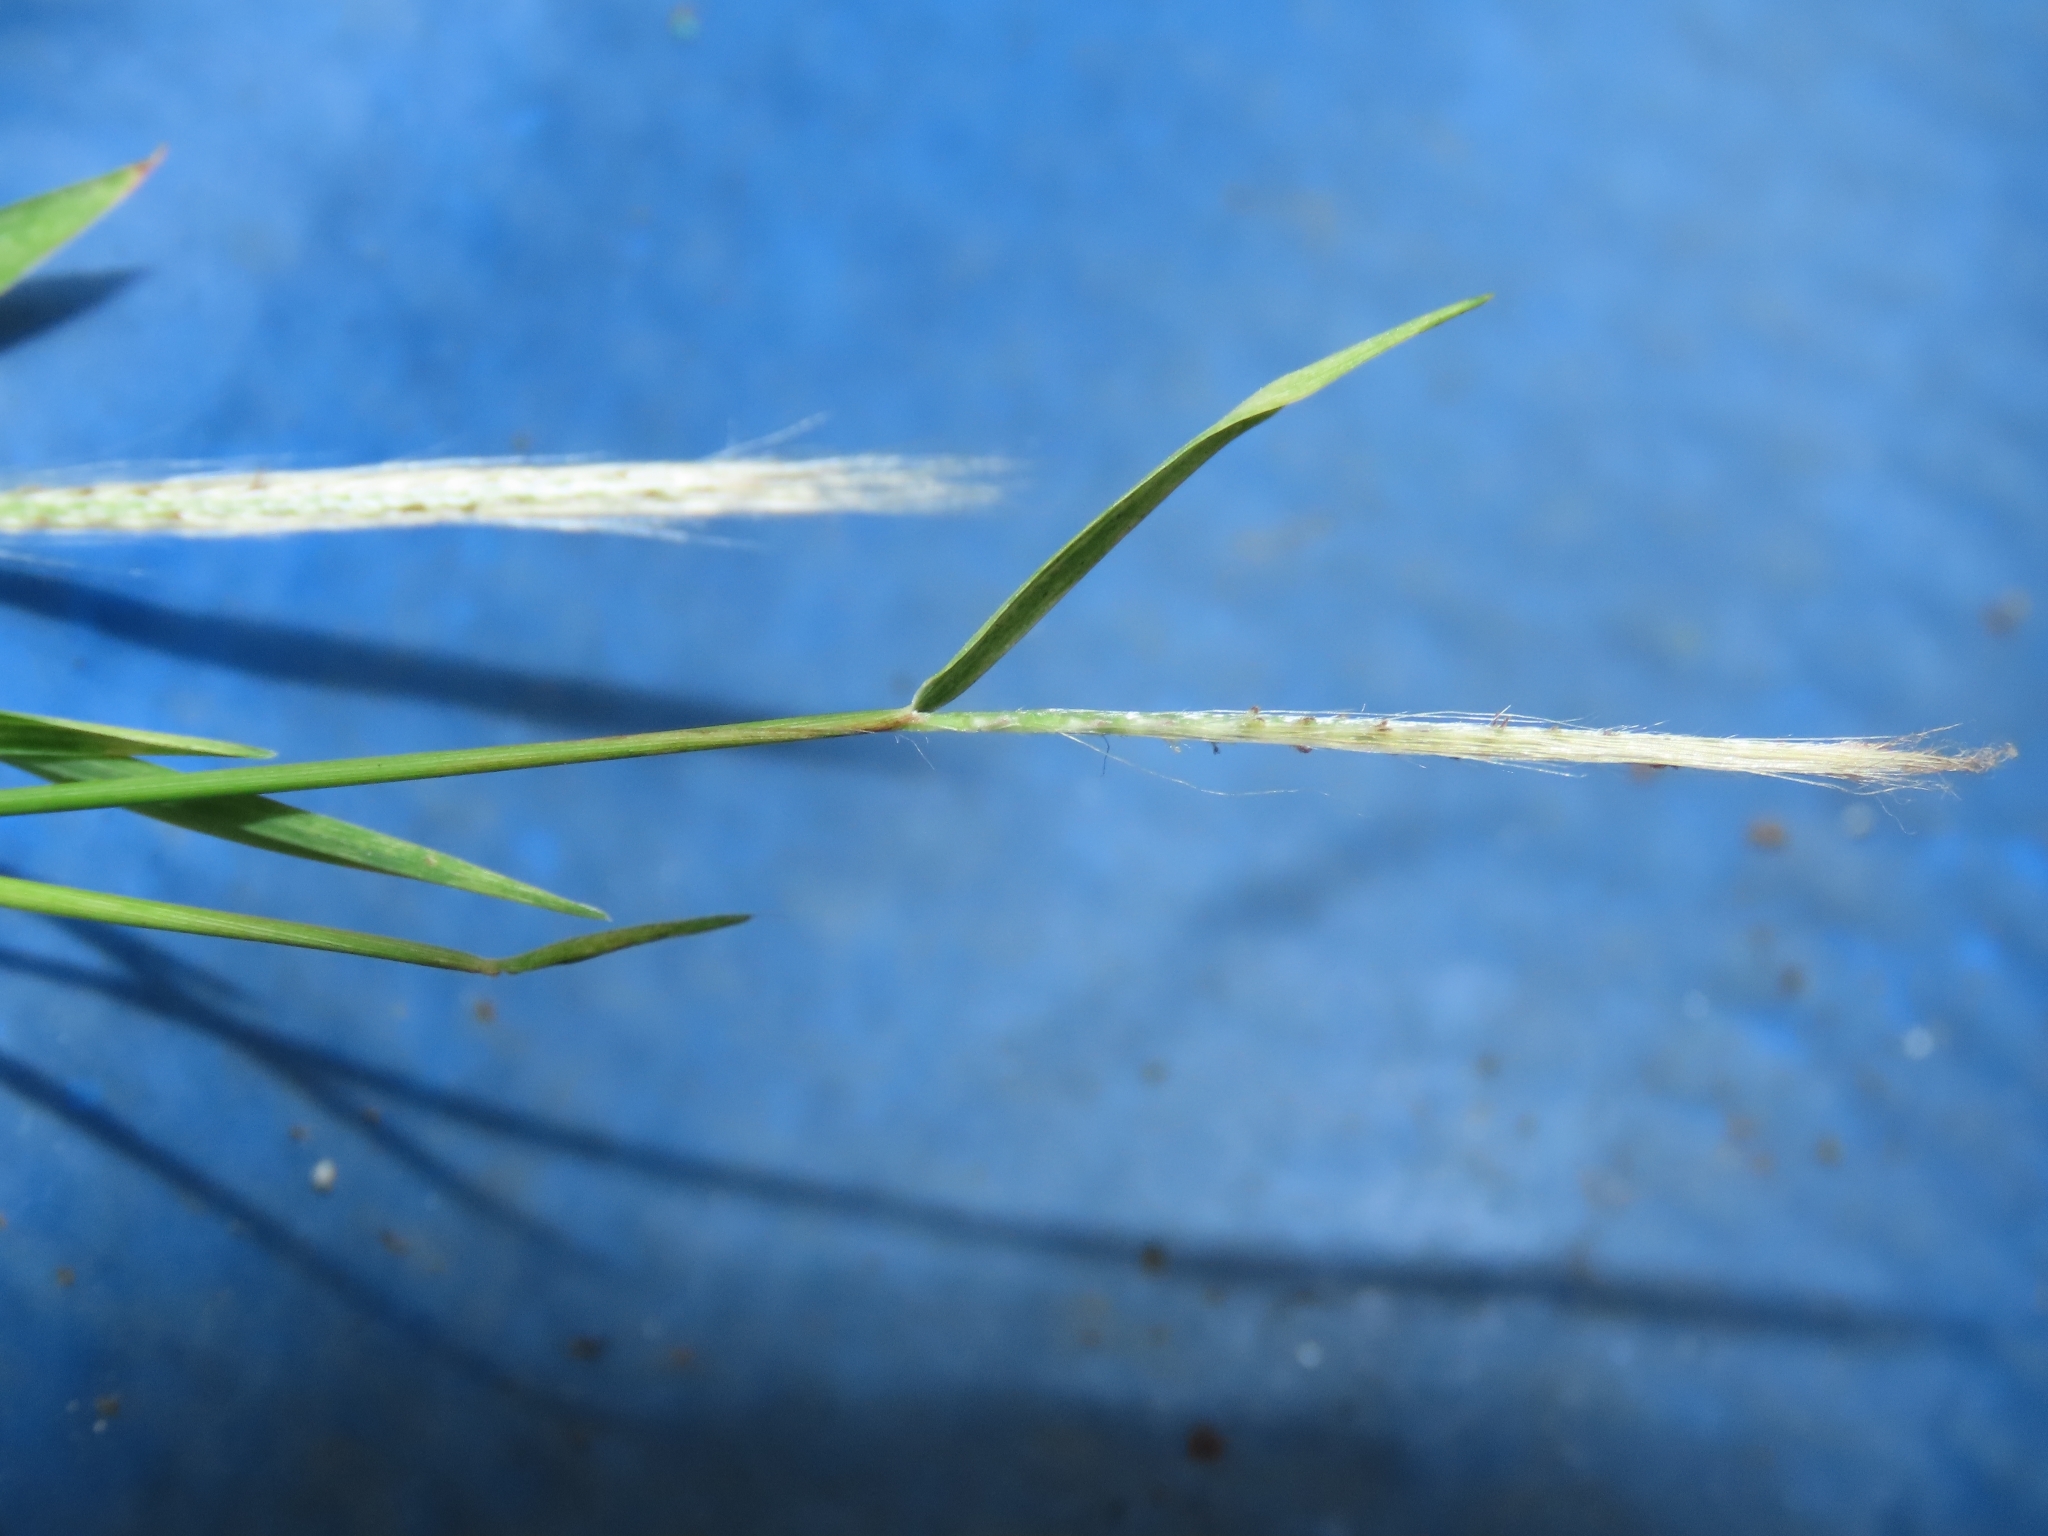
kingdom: Plantae
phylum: Tracheophyta
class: Liliopsida
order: Poales
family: Poaceae
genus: Pogonatherum
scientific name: Pogonatherum crinitum
